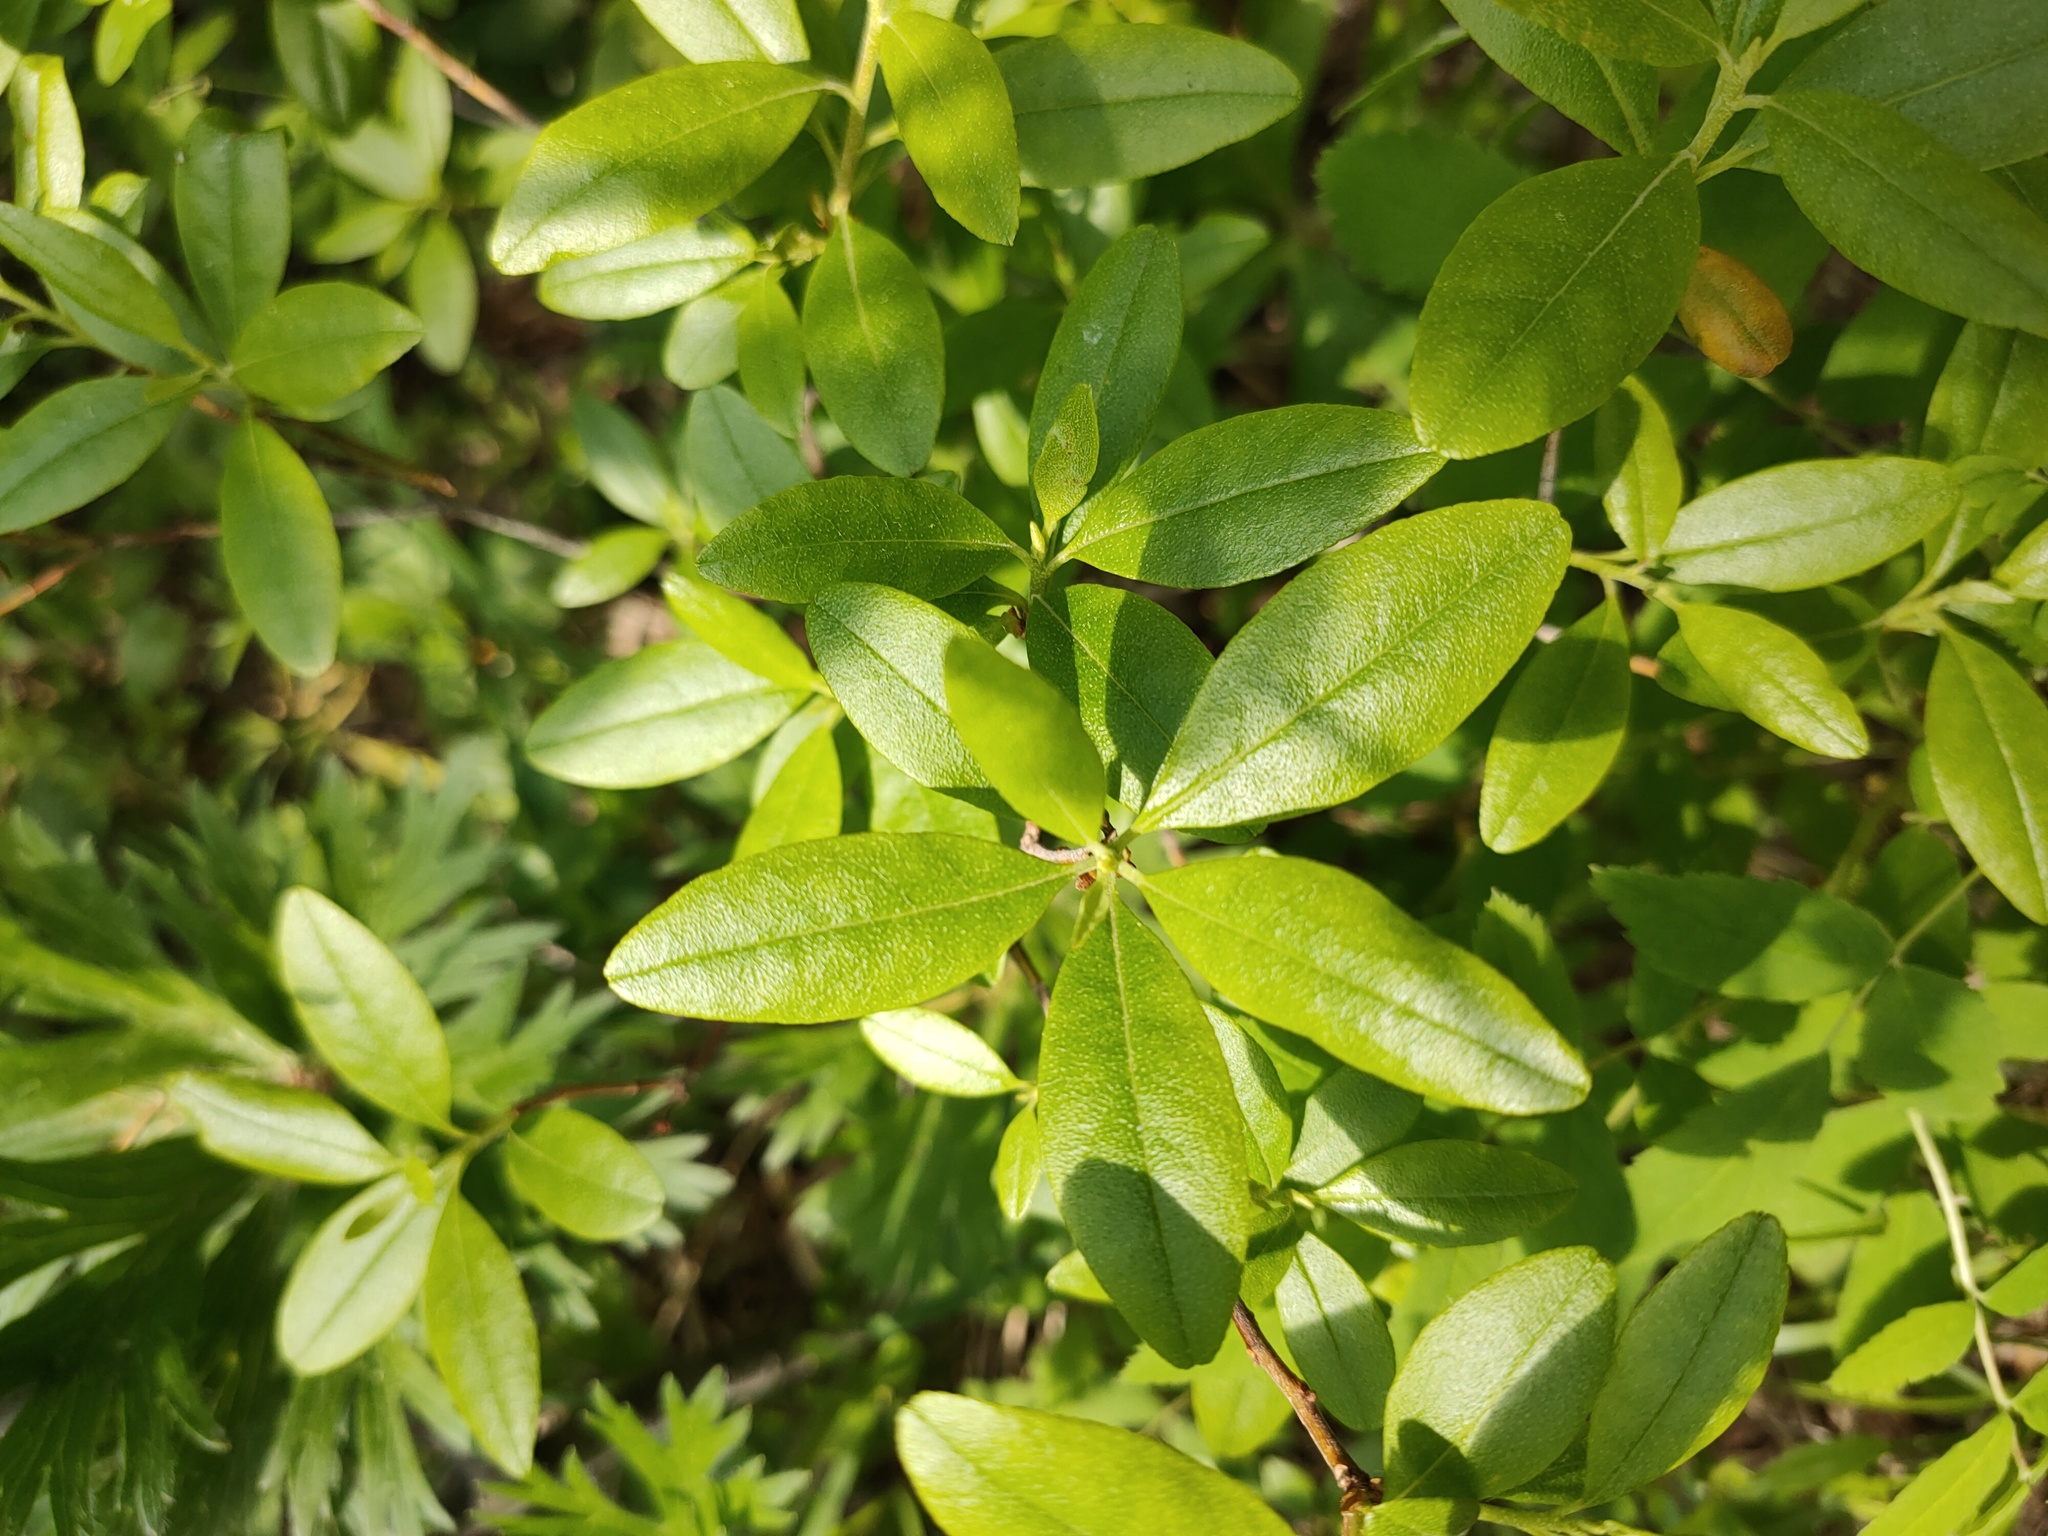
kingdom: Plantae
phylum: Tracheophyta
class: Magnoliopsida
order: Ericales
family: Ericaceae
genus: Rhododendron
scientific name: Rhododendron dauricum
